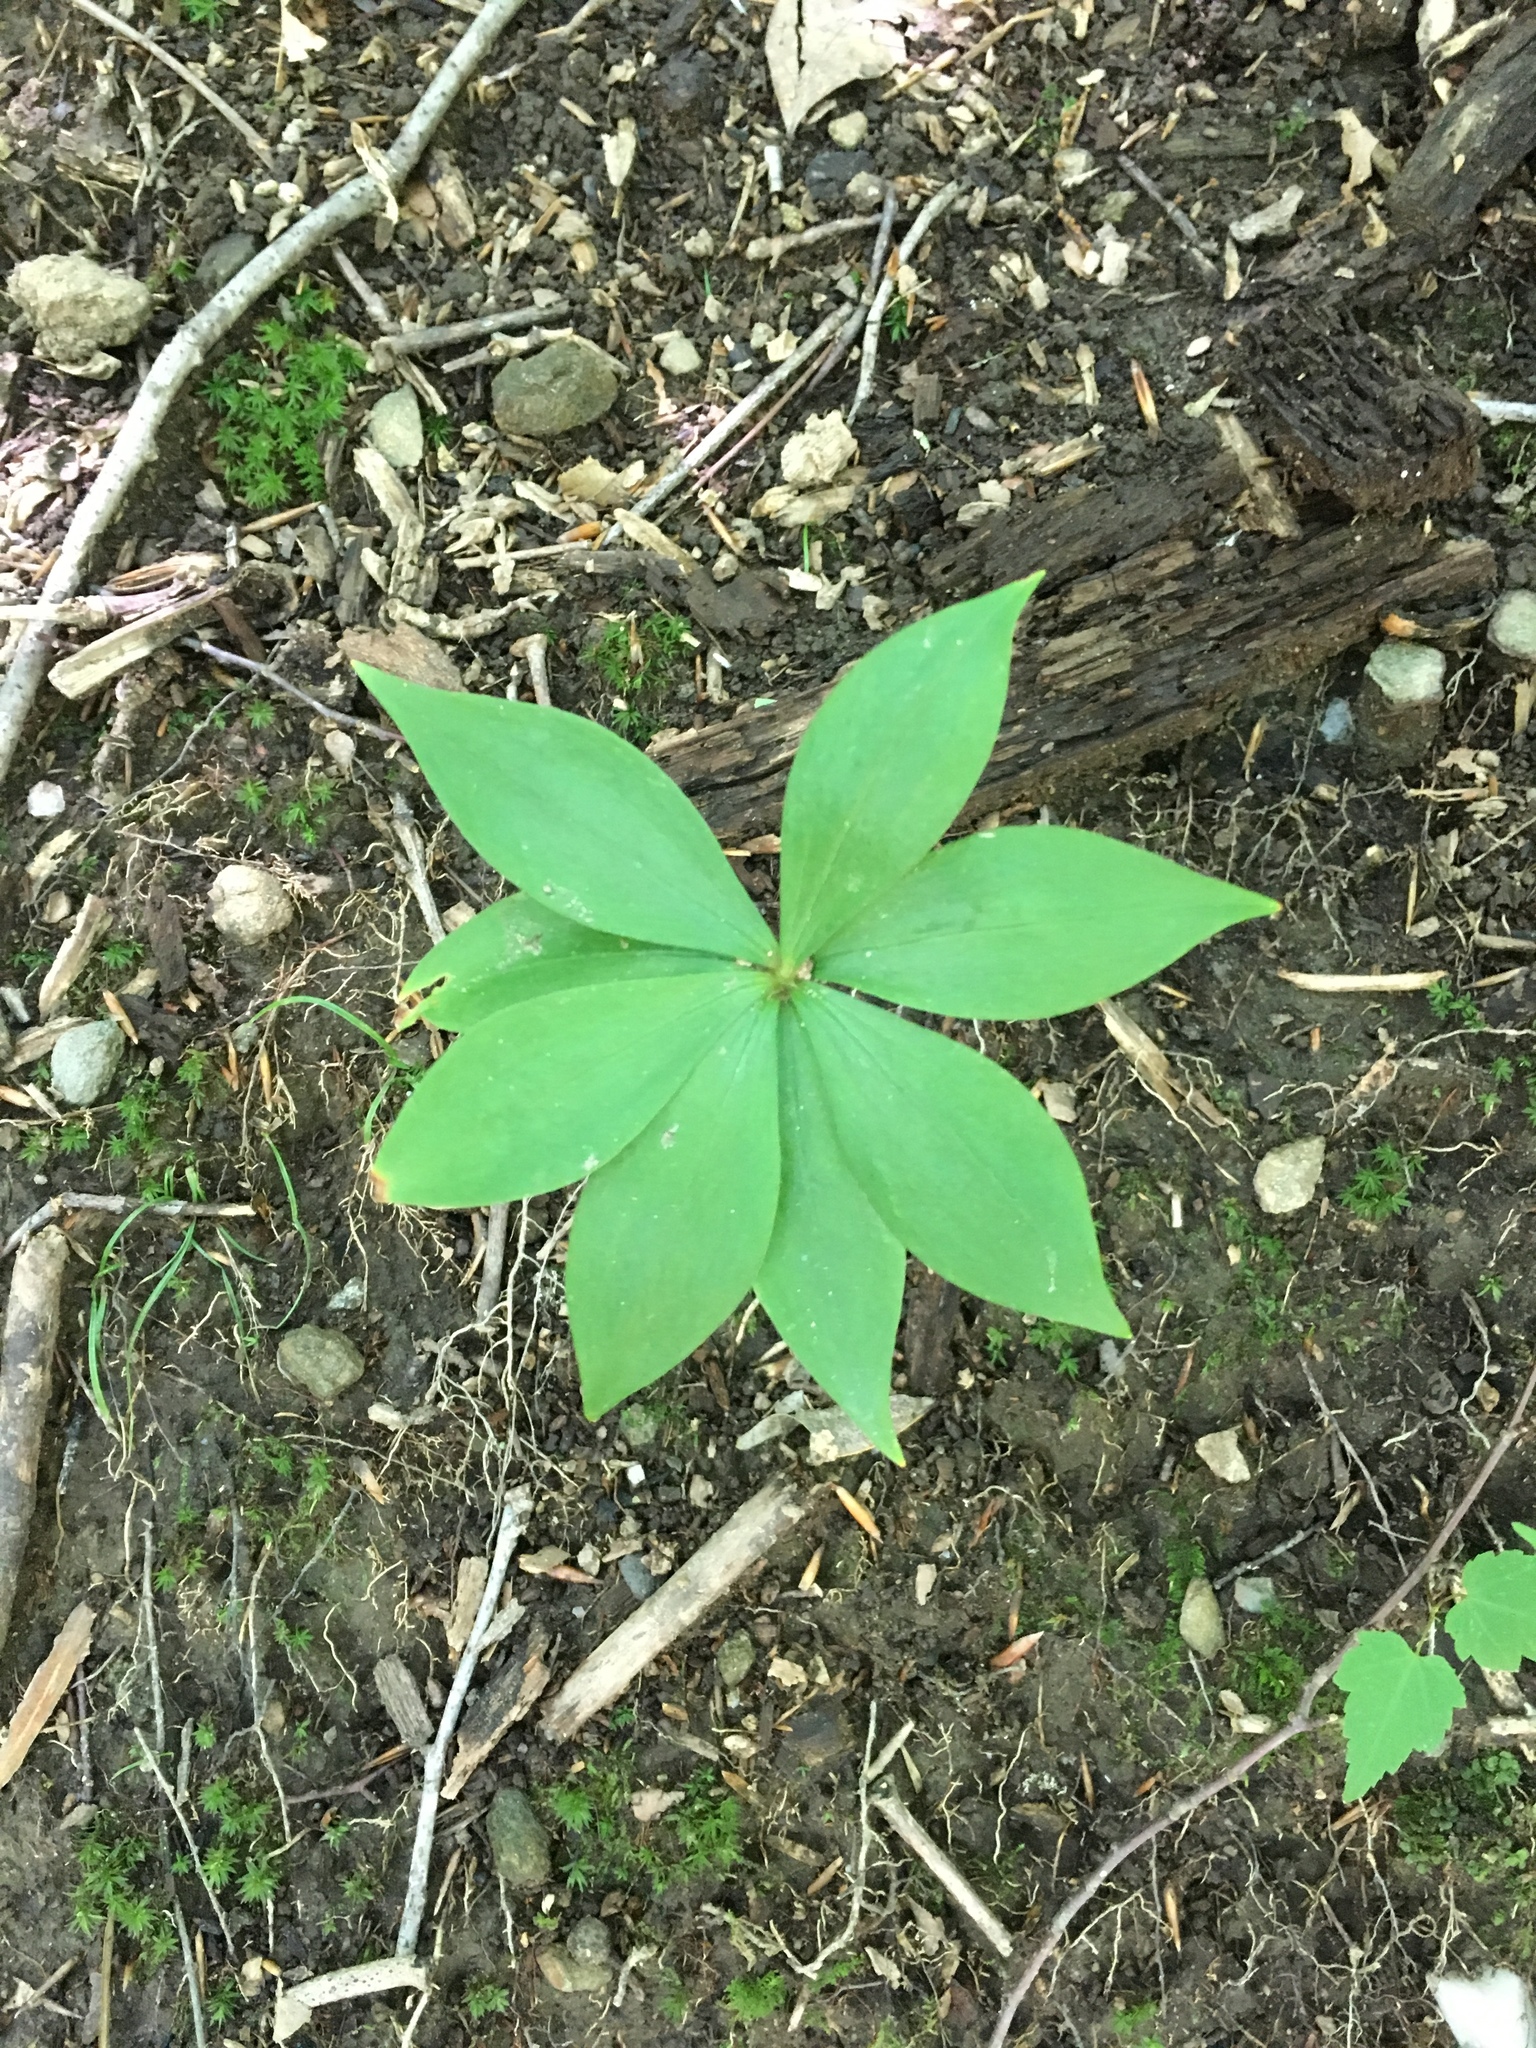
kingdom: Plantae
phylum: Tracheophyta
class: Liliopsida
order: Liliales
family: Liliaceae
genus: Medeola
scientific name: Medeola virginiana
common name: Indian cucumber-root
